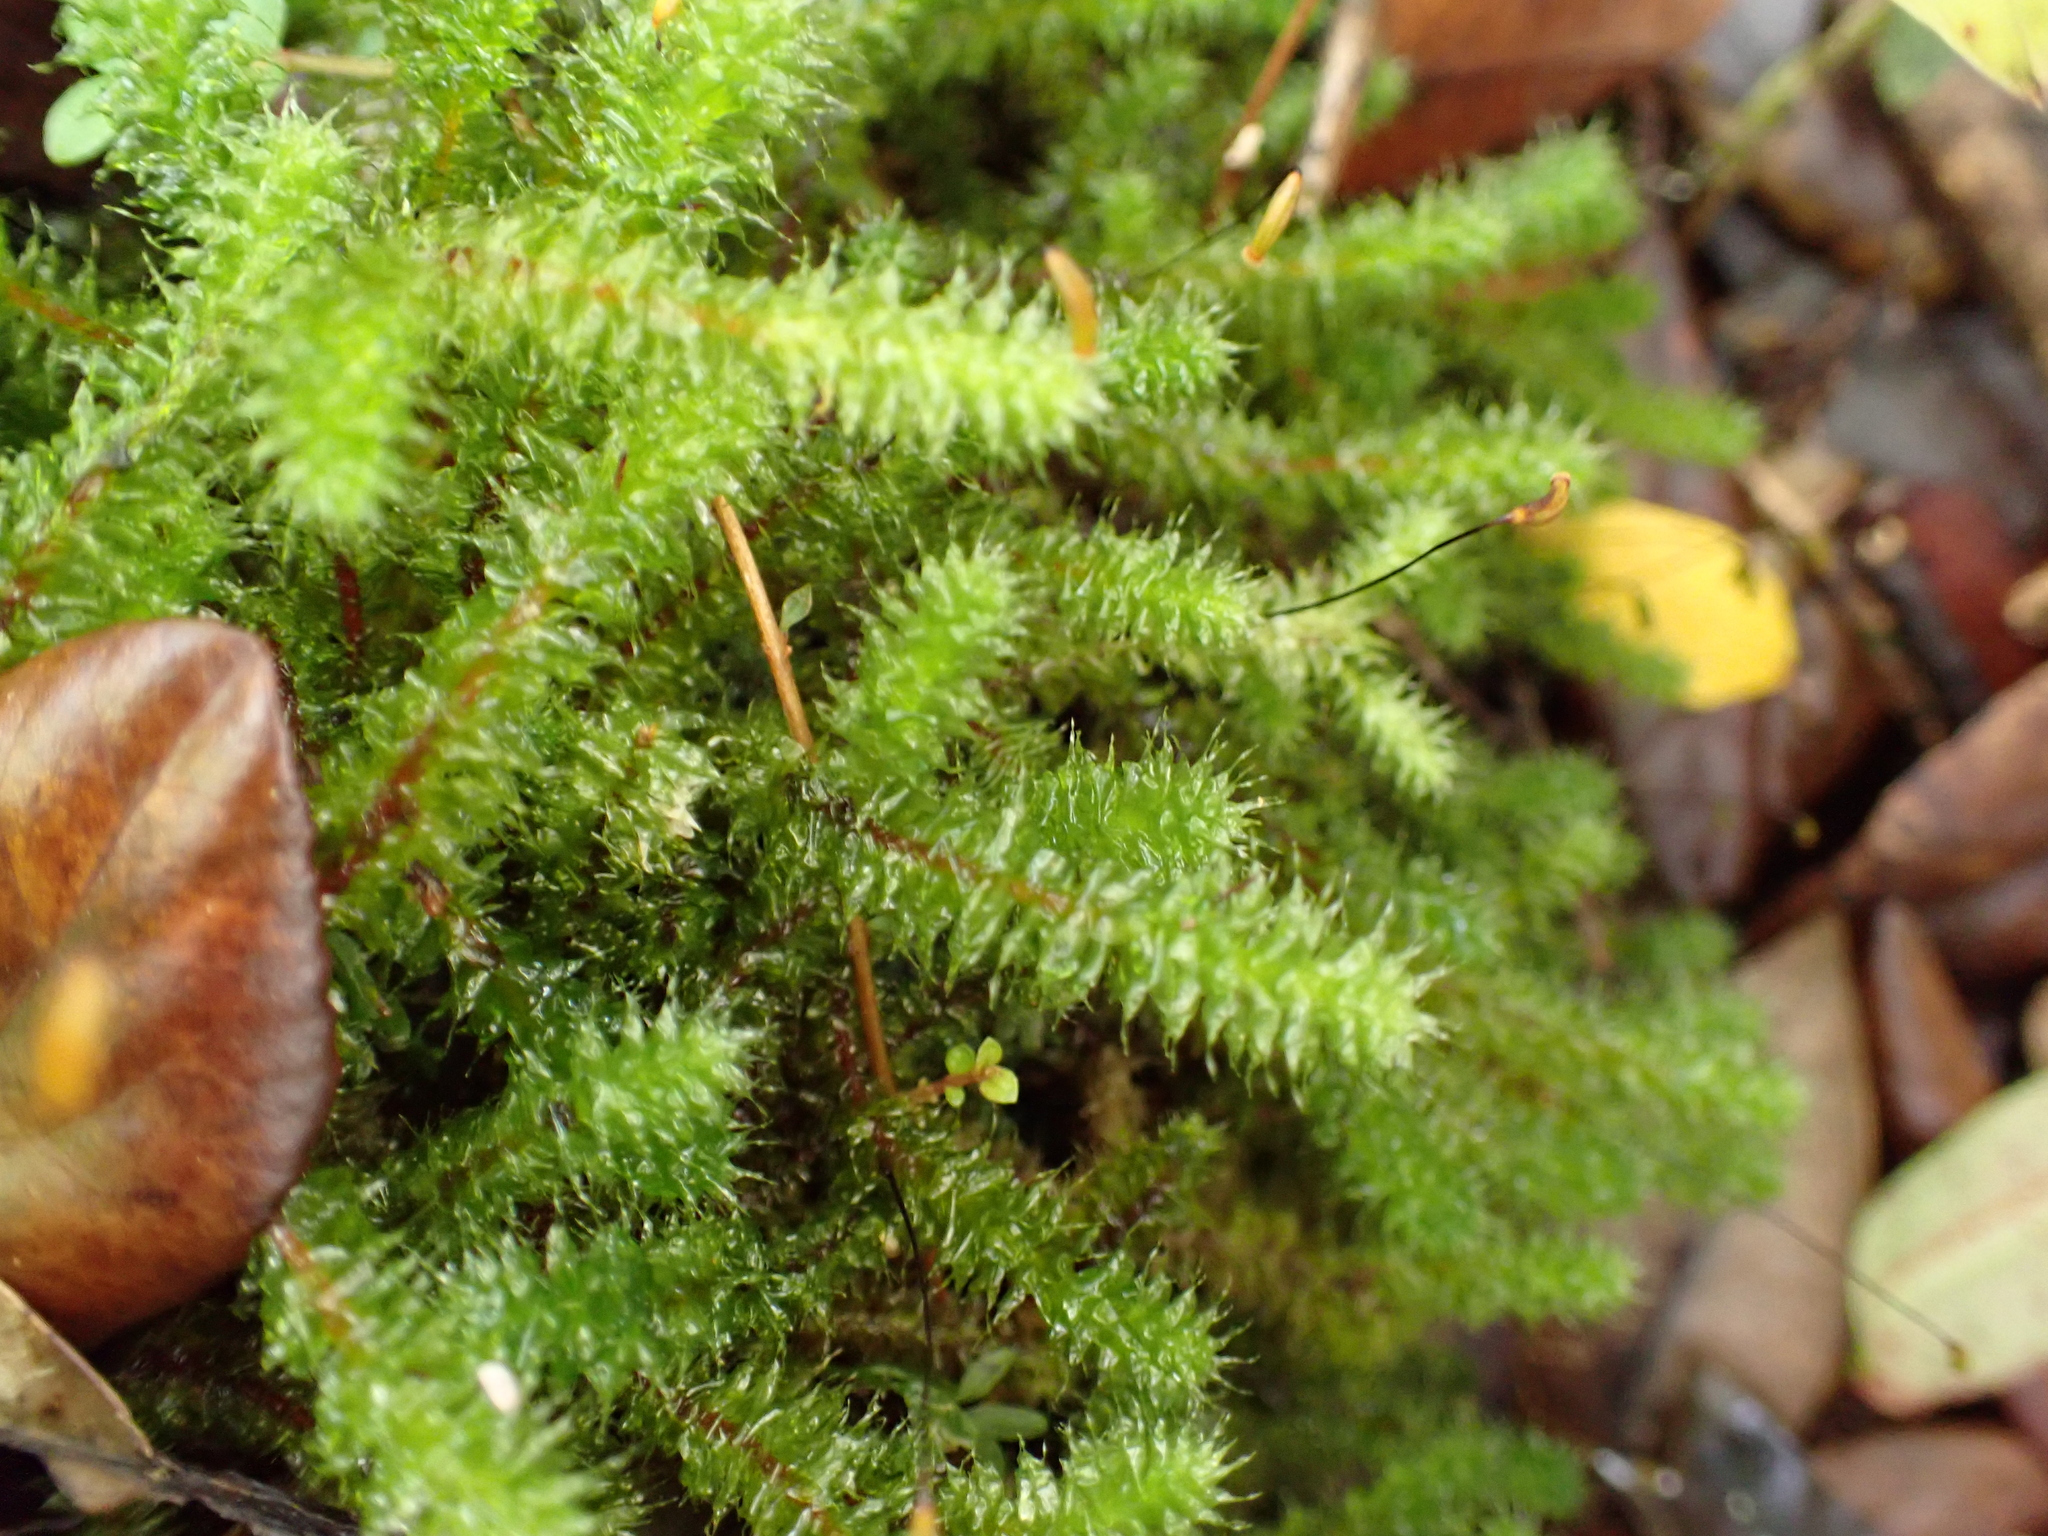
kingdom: Plantae
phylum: Bryophyta
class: Bryopsida
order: Ptychomniales
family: Ptychomniaceae
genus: Ptychomnion
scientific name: Ptychomnion aciculare
